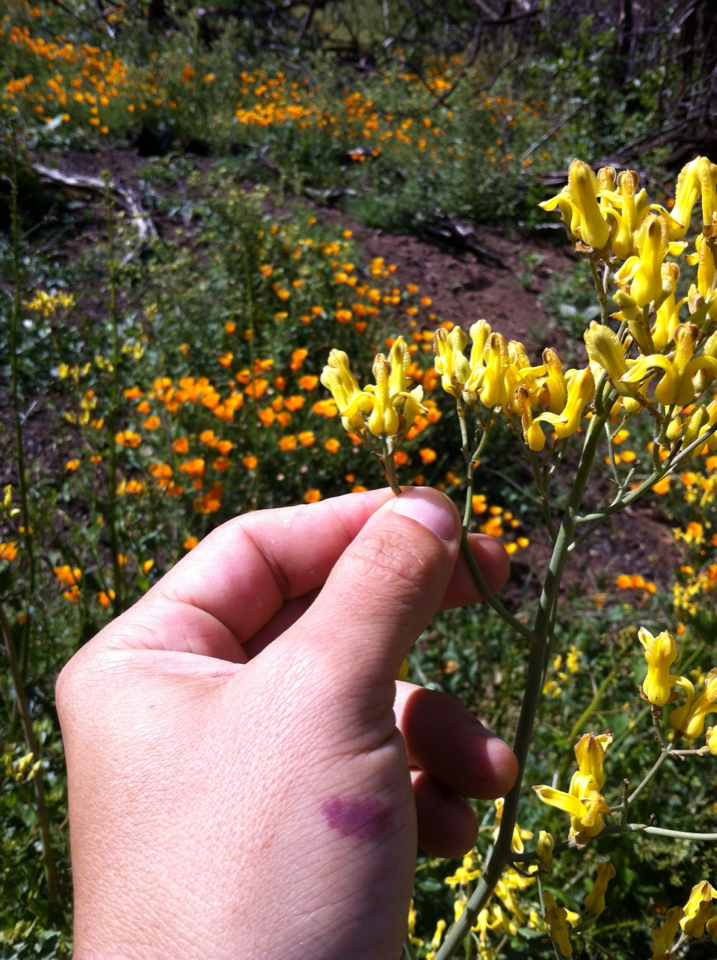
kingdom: Plantae
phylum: Tracheophyta
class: Magnoliopsida
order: Ranunculales
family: Papaveraceae
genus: Ehrendorferia
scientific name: Ehrendorferia chrysantha
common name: Golden eardrops
